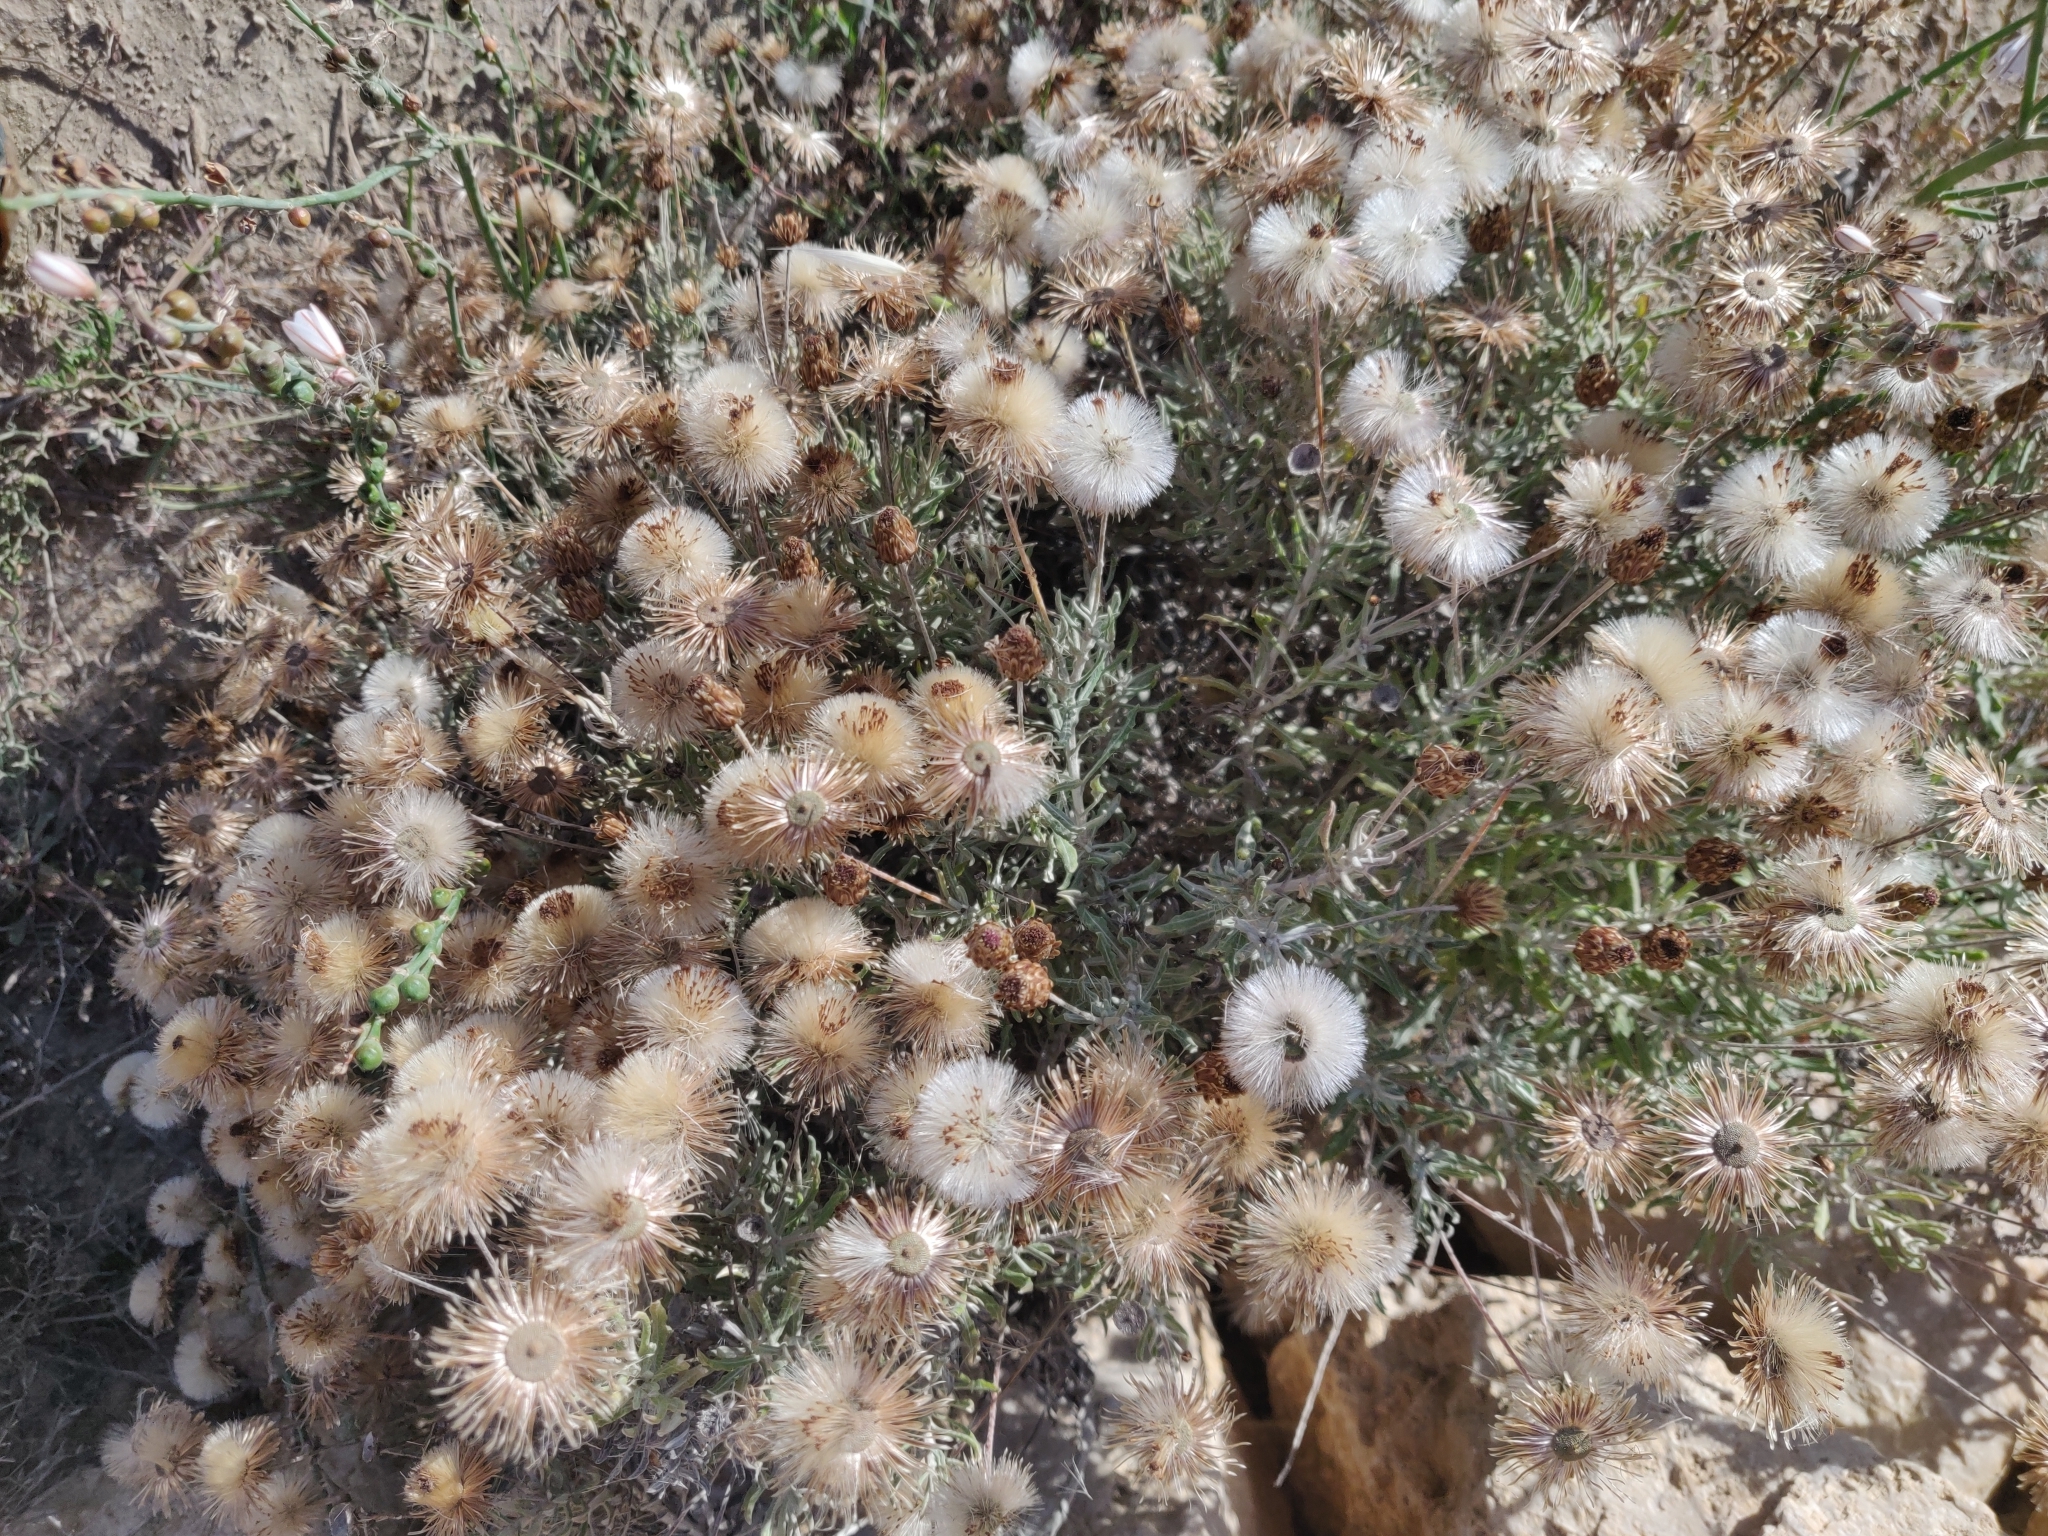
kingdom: Plantae
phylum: Tracheophyta
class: Magnoliopsida
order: Asterales
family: Asteraceae
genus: Phagnalon
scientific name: Phagnalon rupestre
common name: Rock phagnalon
